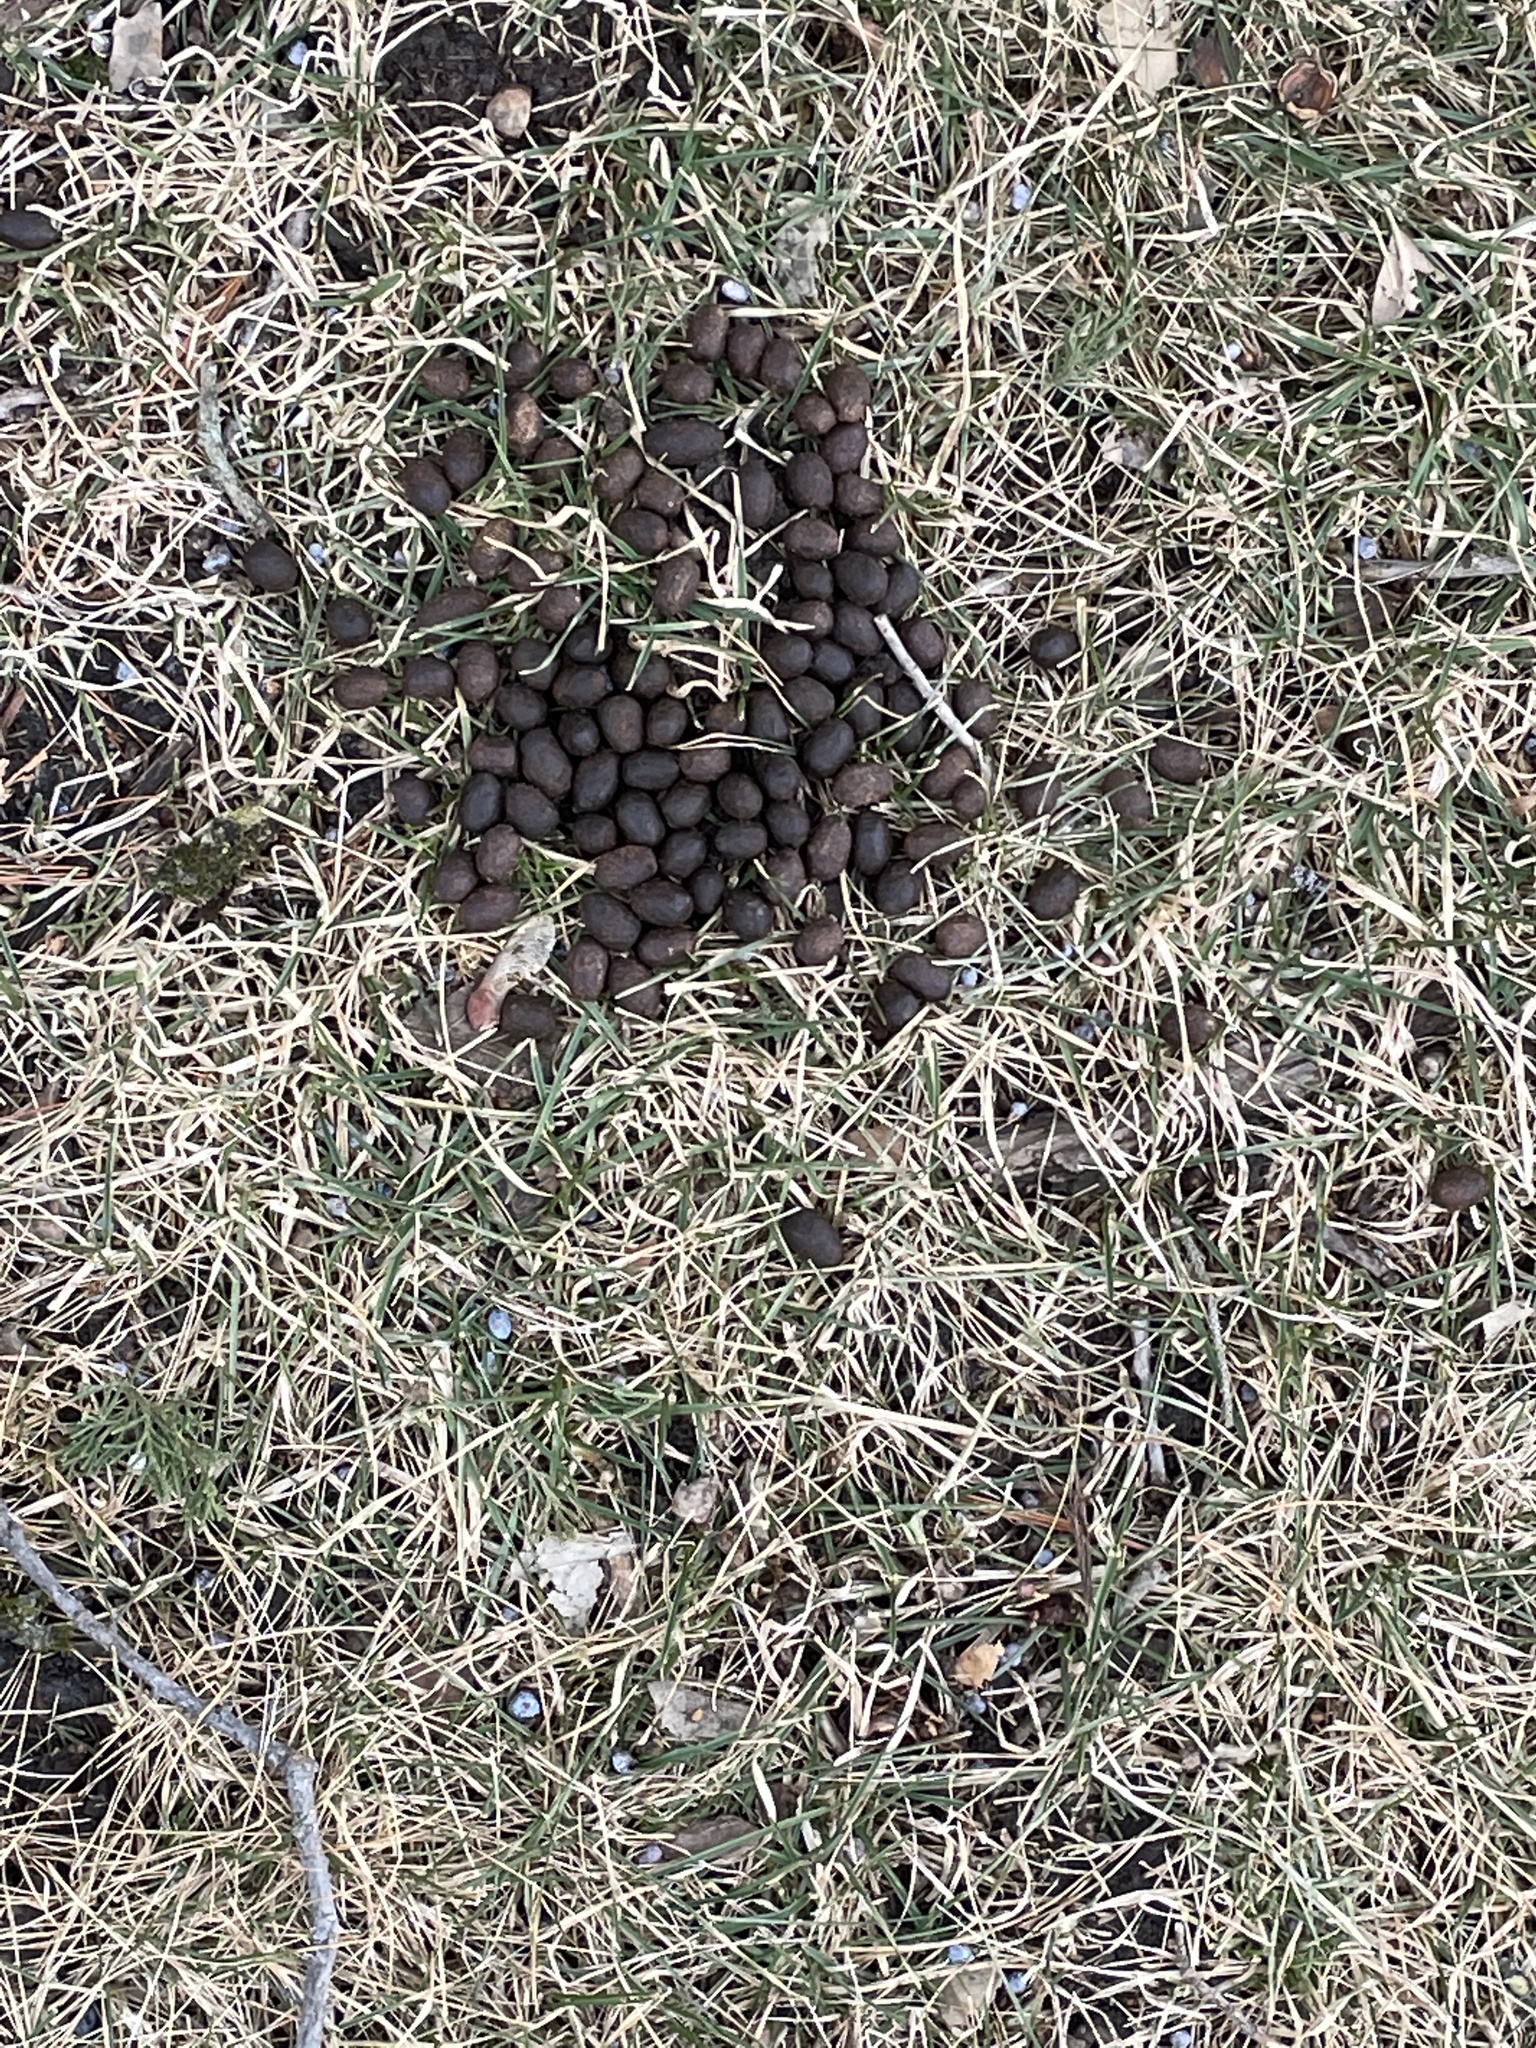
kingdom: Animalia
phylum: Chordata
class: Mammalia
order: Artiodactyla
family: Cervidae
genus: Odocoileus
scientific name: Odocoileus virginianus
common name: White-tailed deer
